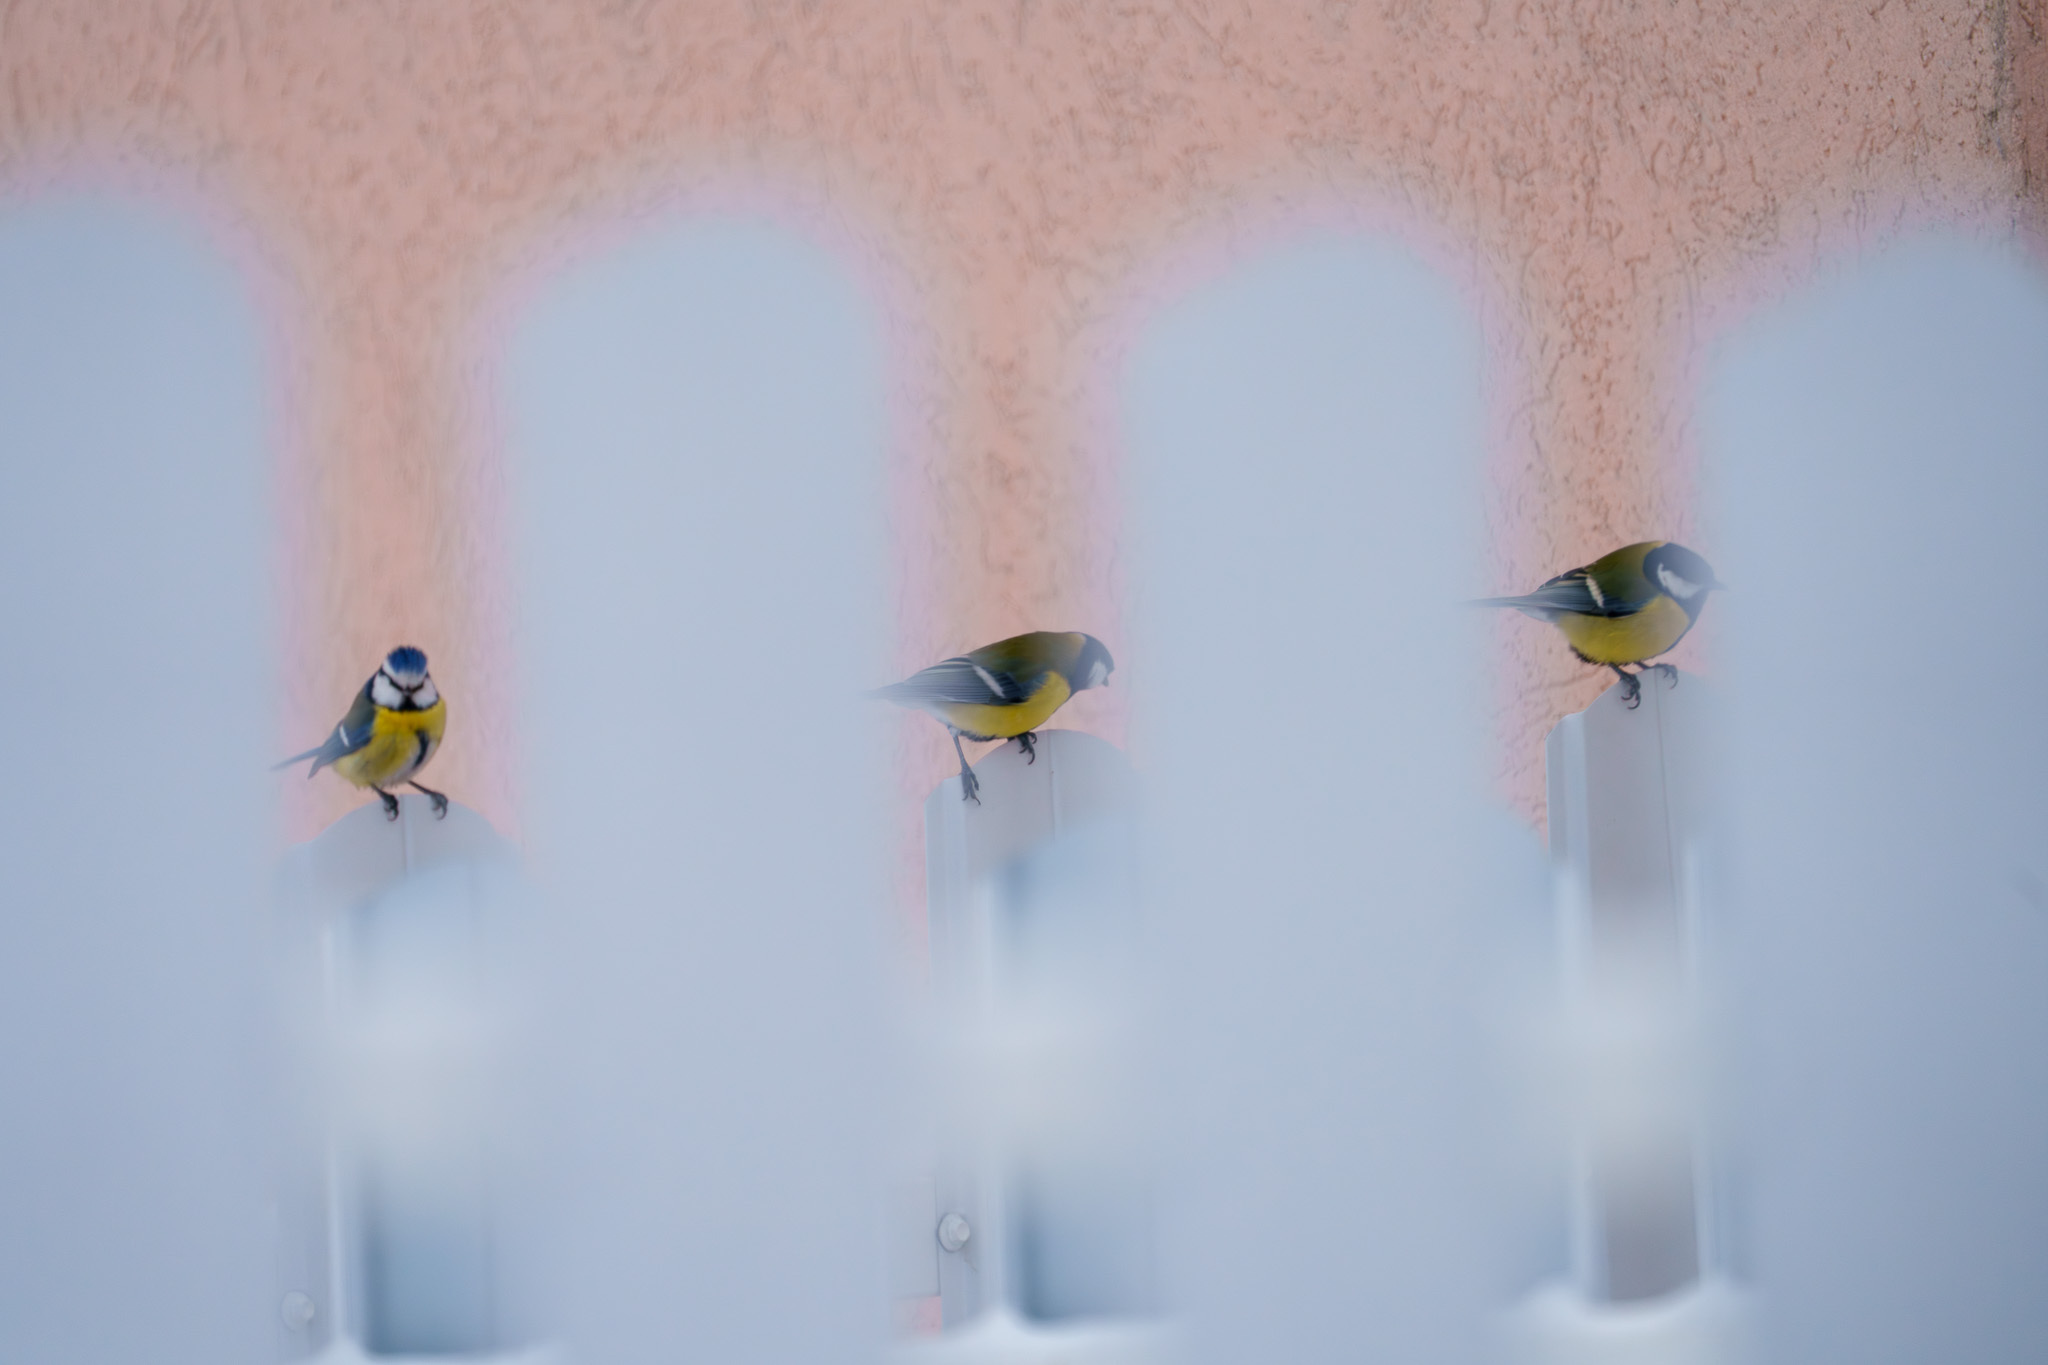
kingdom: Animalia
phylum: Chordata
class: Aves
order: Passeriformes
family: Paridae
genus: Cyanistes
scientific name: Cyanistes caeruleus
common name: Eurasian blue tit
